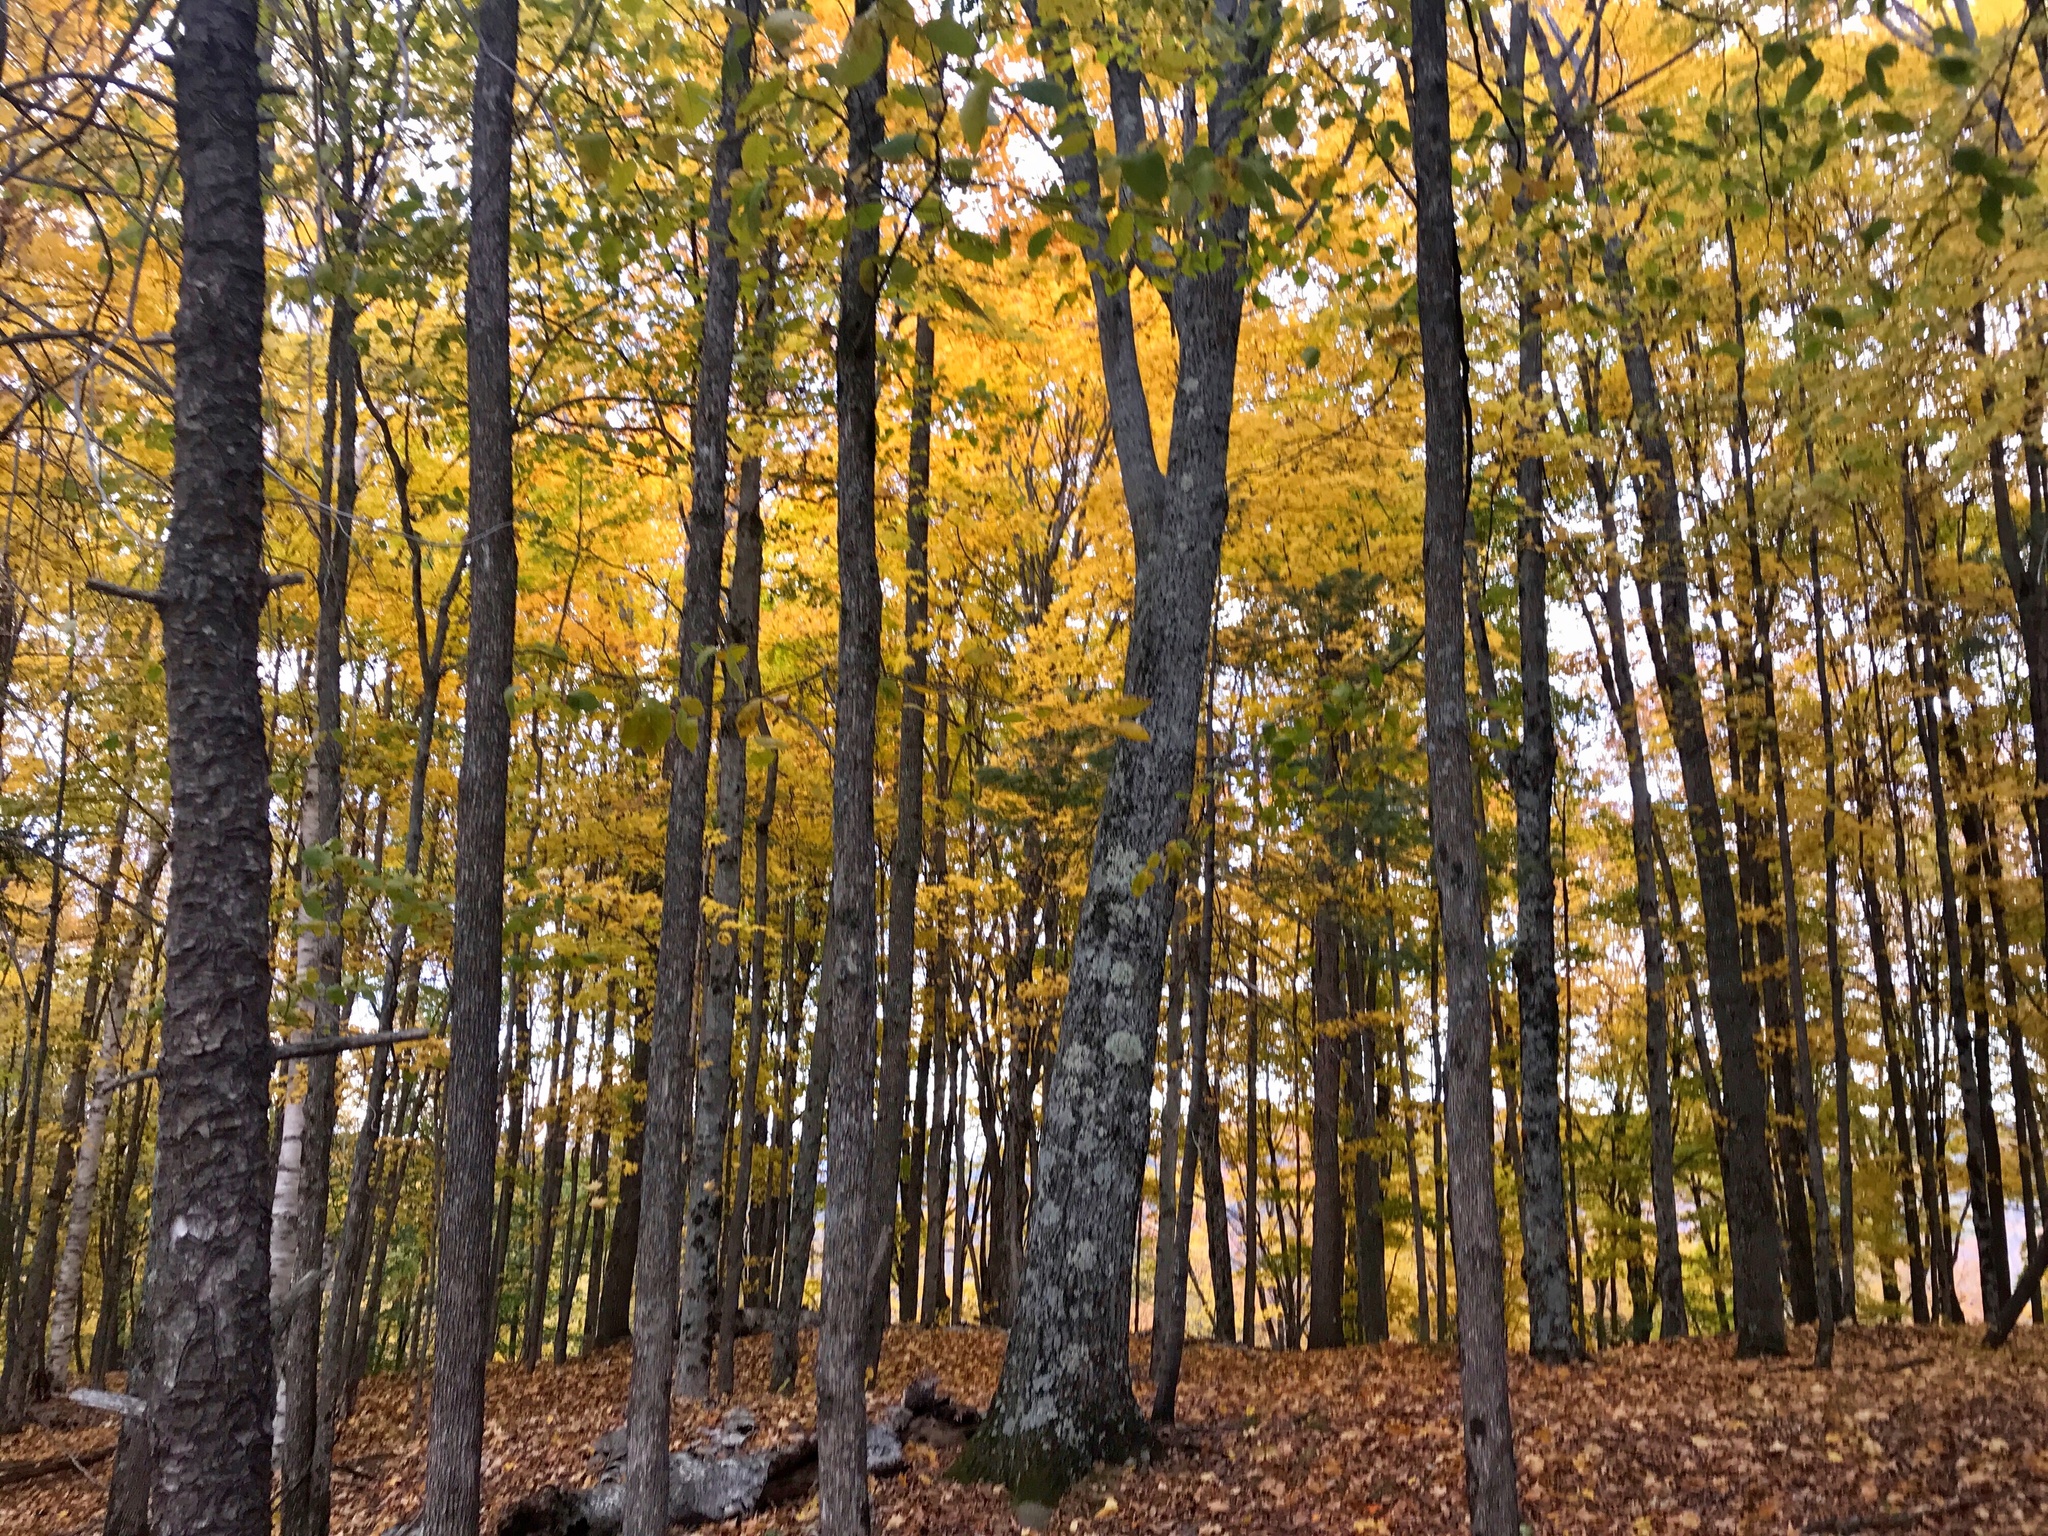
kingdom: Plantae
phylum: Tracheophyta
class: Magnoliopsida
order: Sapindales
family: Sapindaceae
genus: Acer
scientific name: Acer saccharum
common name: Sugar maple
